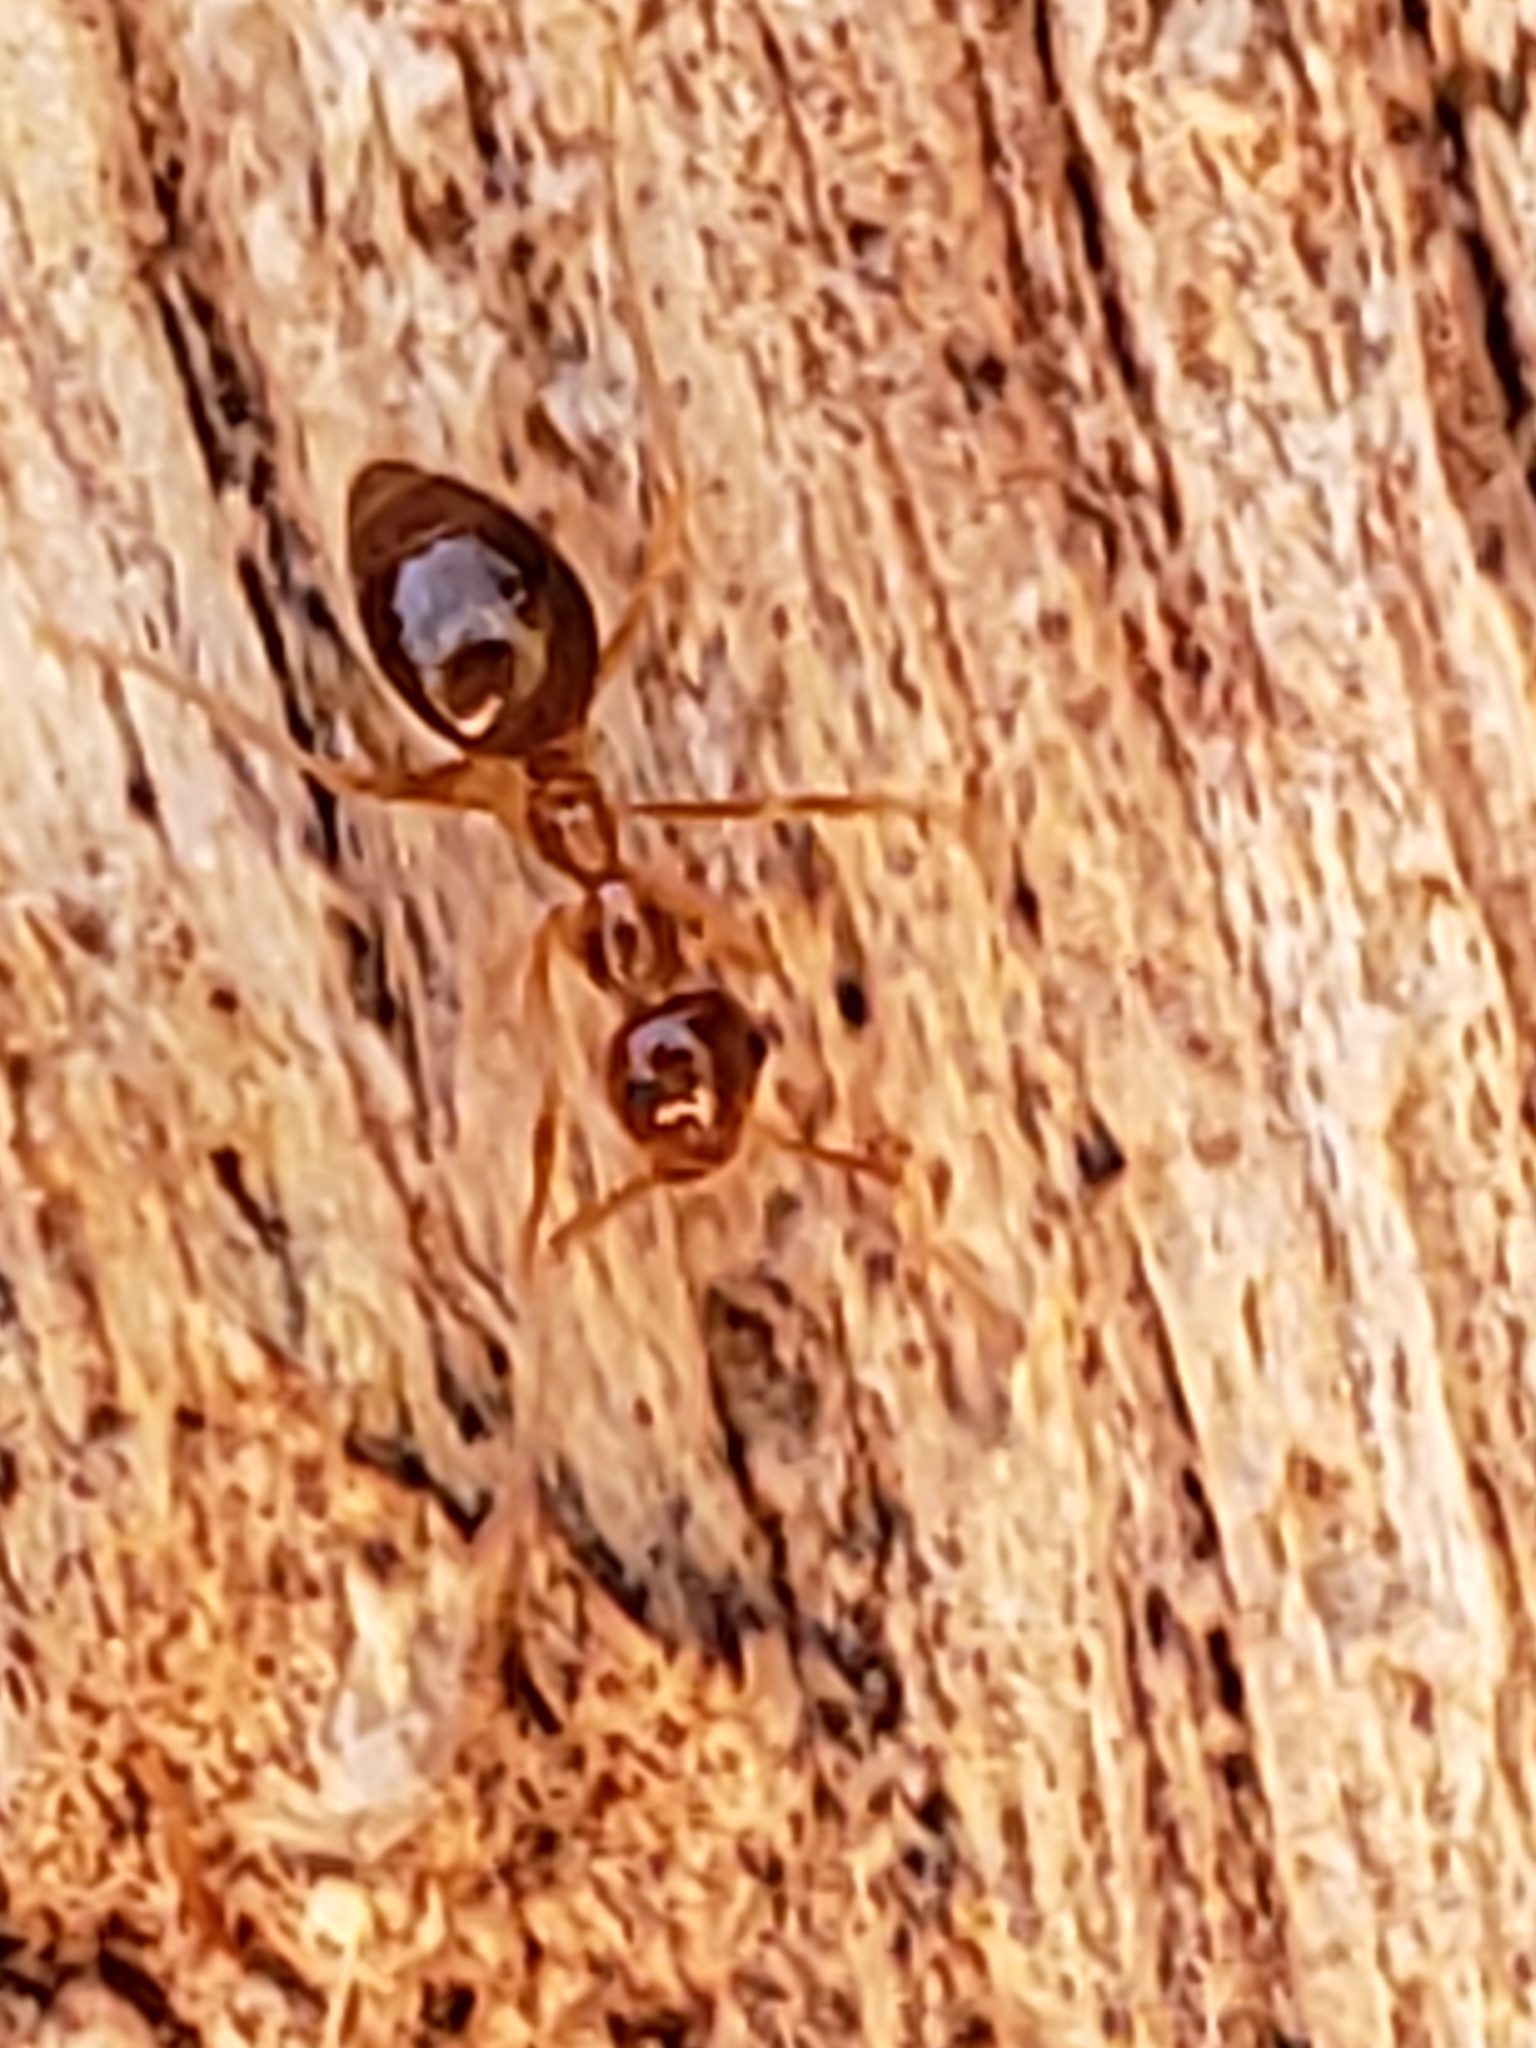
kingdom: Animalia
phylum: Arthropoda
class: Insecta
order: Hymenoptera
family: Formicidae
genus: Prenolepis
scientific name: Prenolepis imparis
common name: Small honey ant
